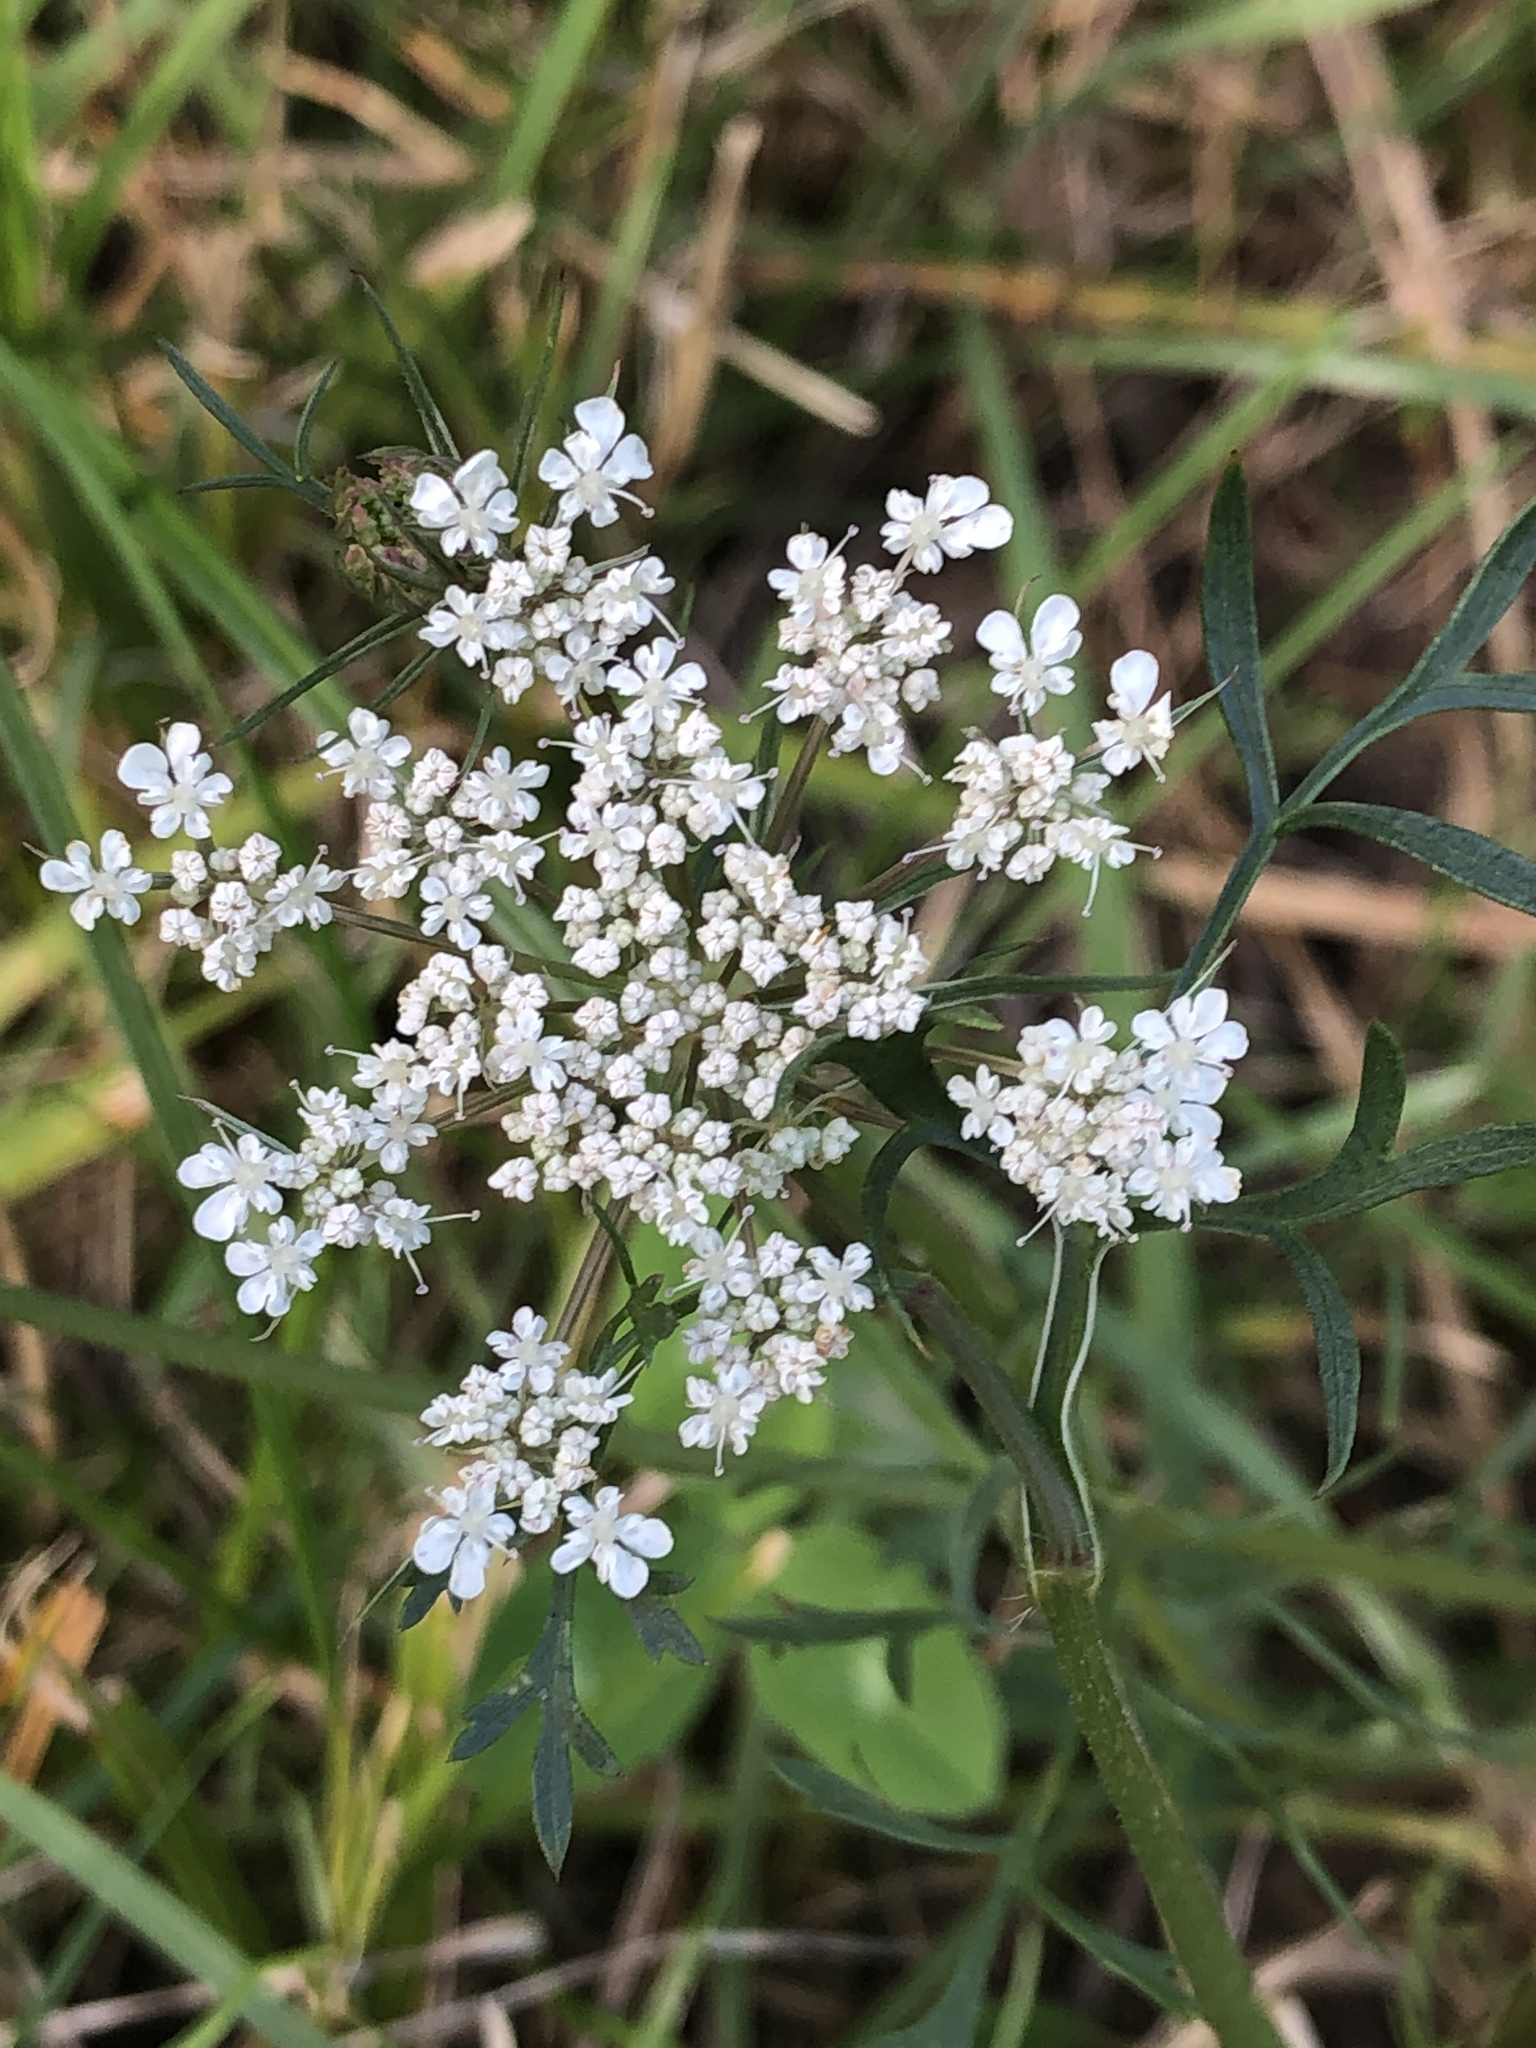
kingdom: Plantae
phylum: Tracheophyta
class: Magnoliopsida
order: Apiales
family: Apiaceae
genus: Daucus
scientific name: Daucus carota
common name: Wild carrot
